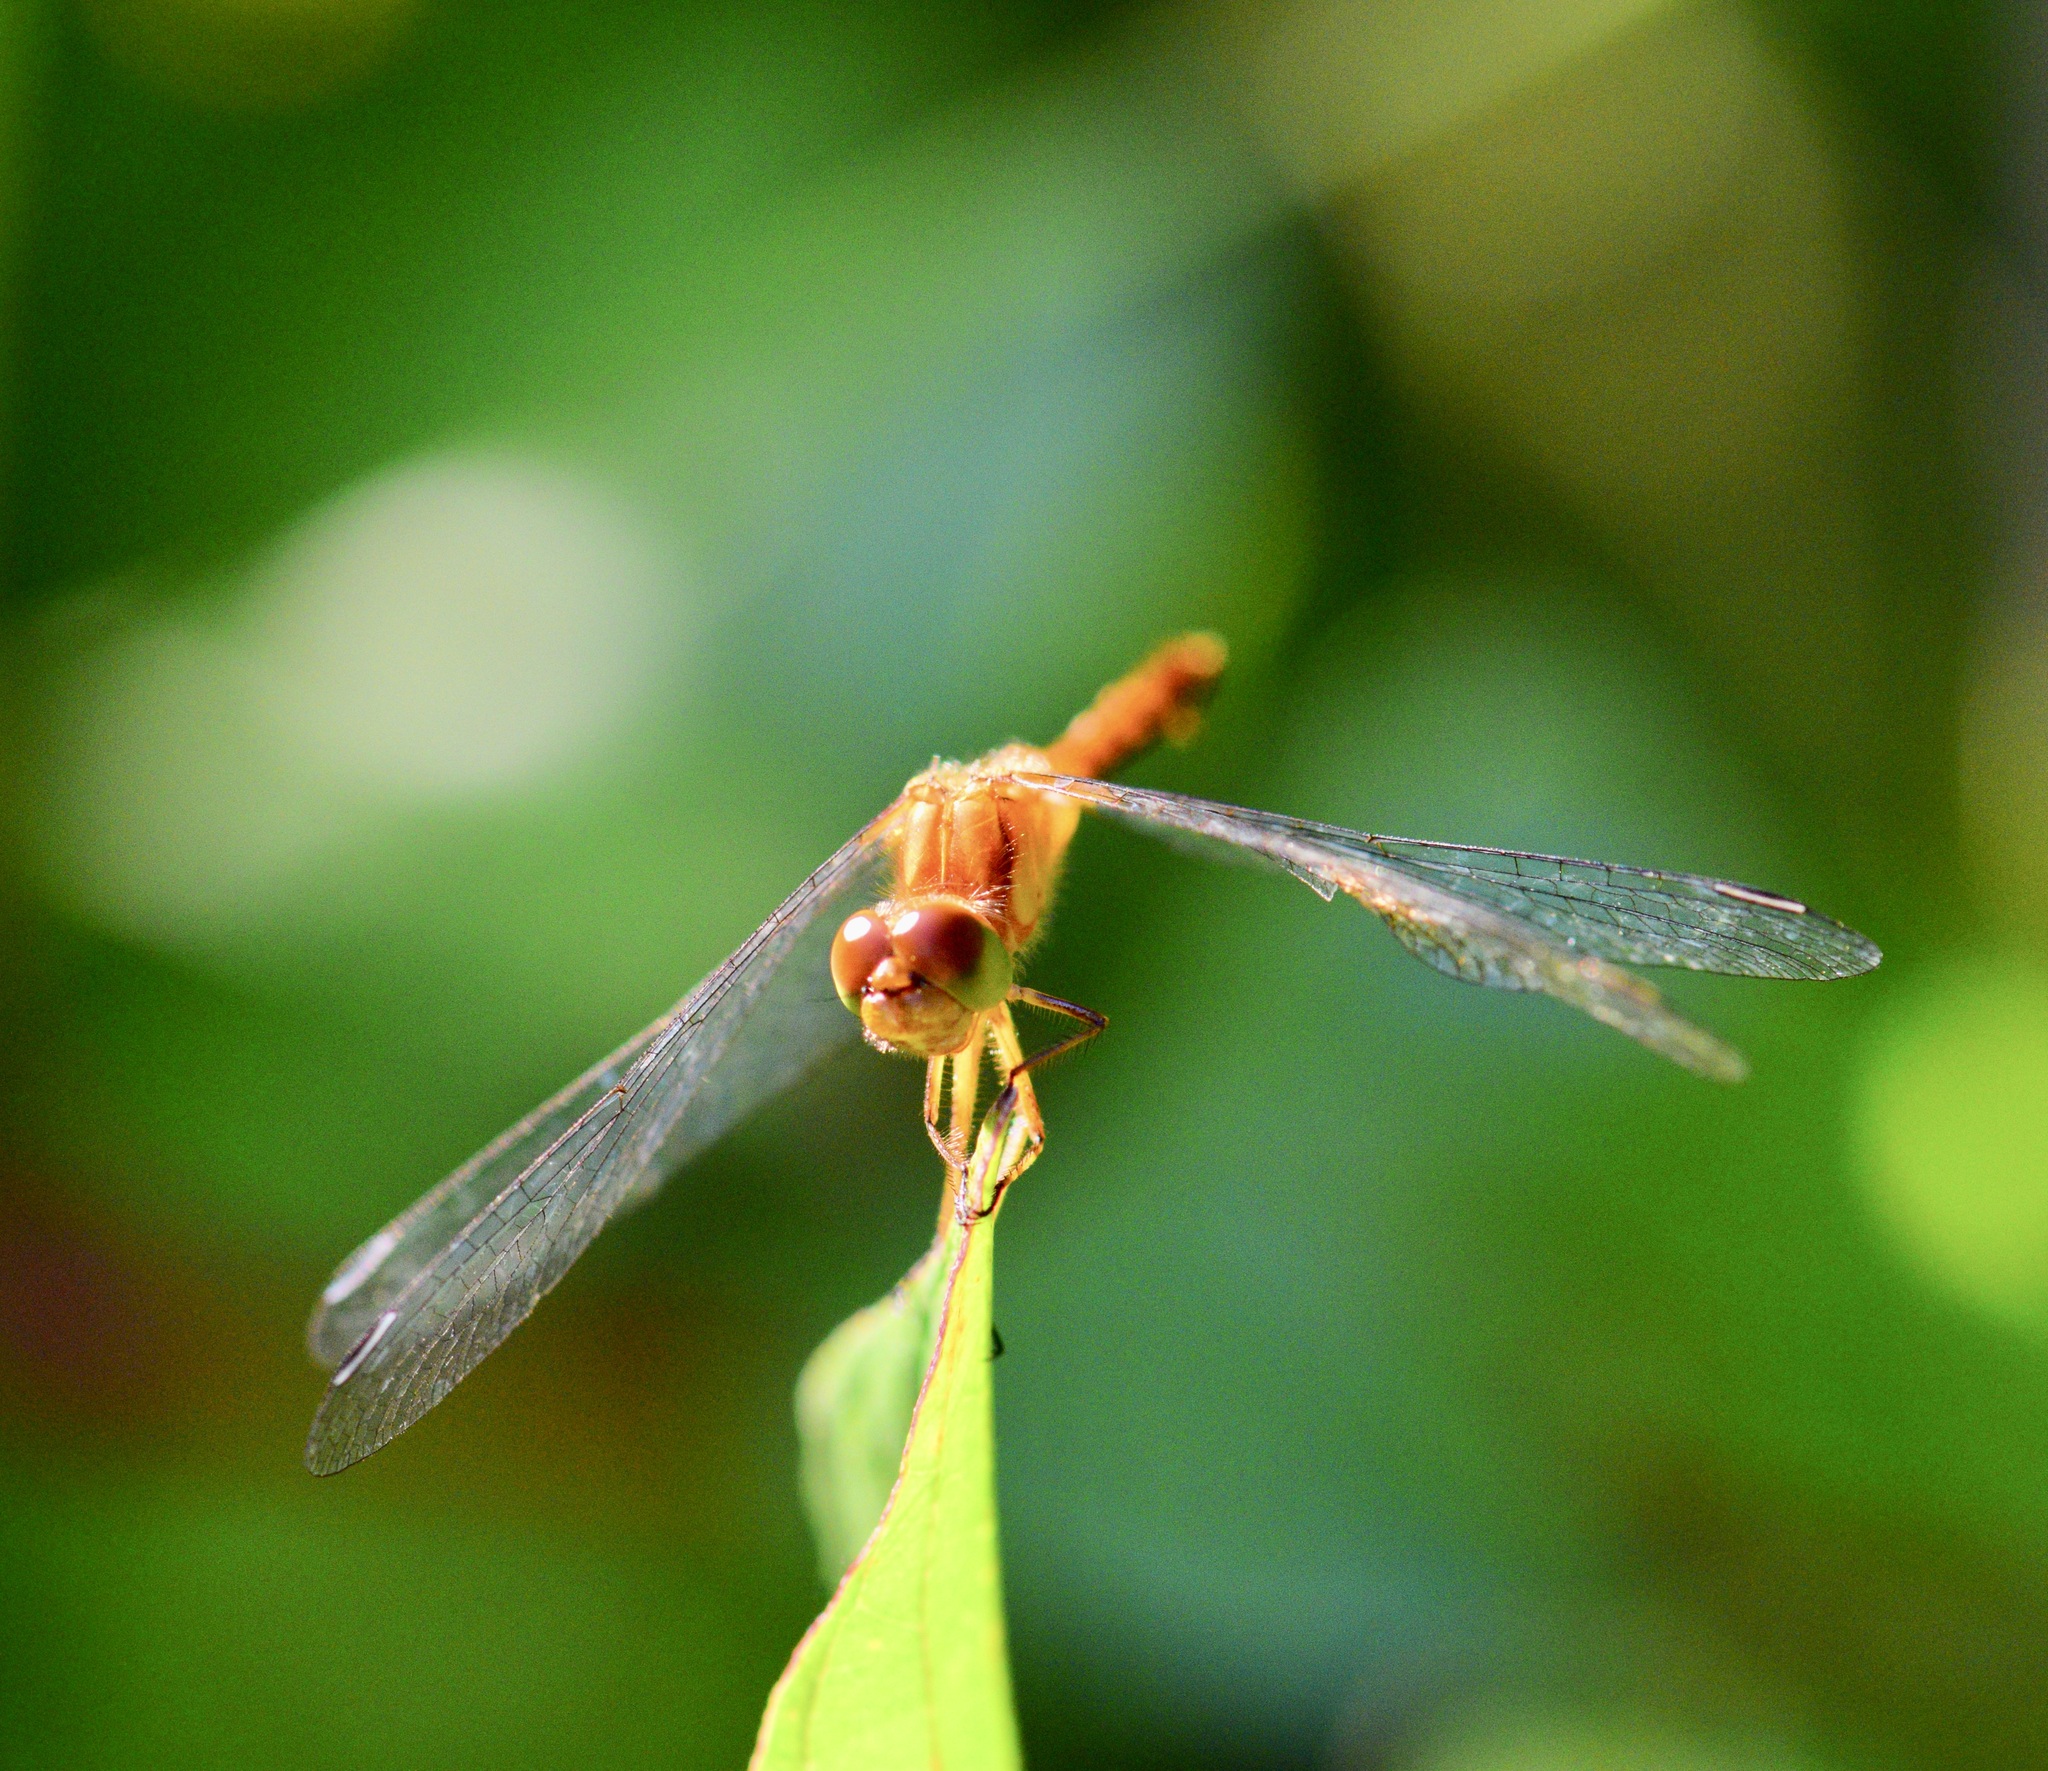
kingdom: Animalia
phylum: Arthropoda
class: Insecta
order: Odonata
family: Libellulidae
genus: Sympetrum
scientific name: Sympetrum vicinum
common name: Autumn meadowhawk
